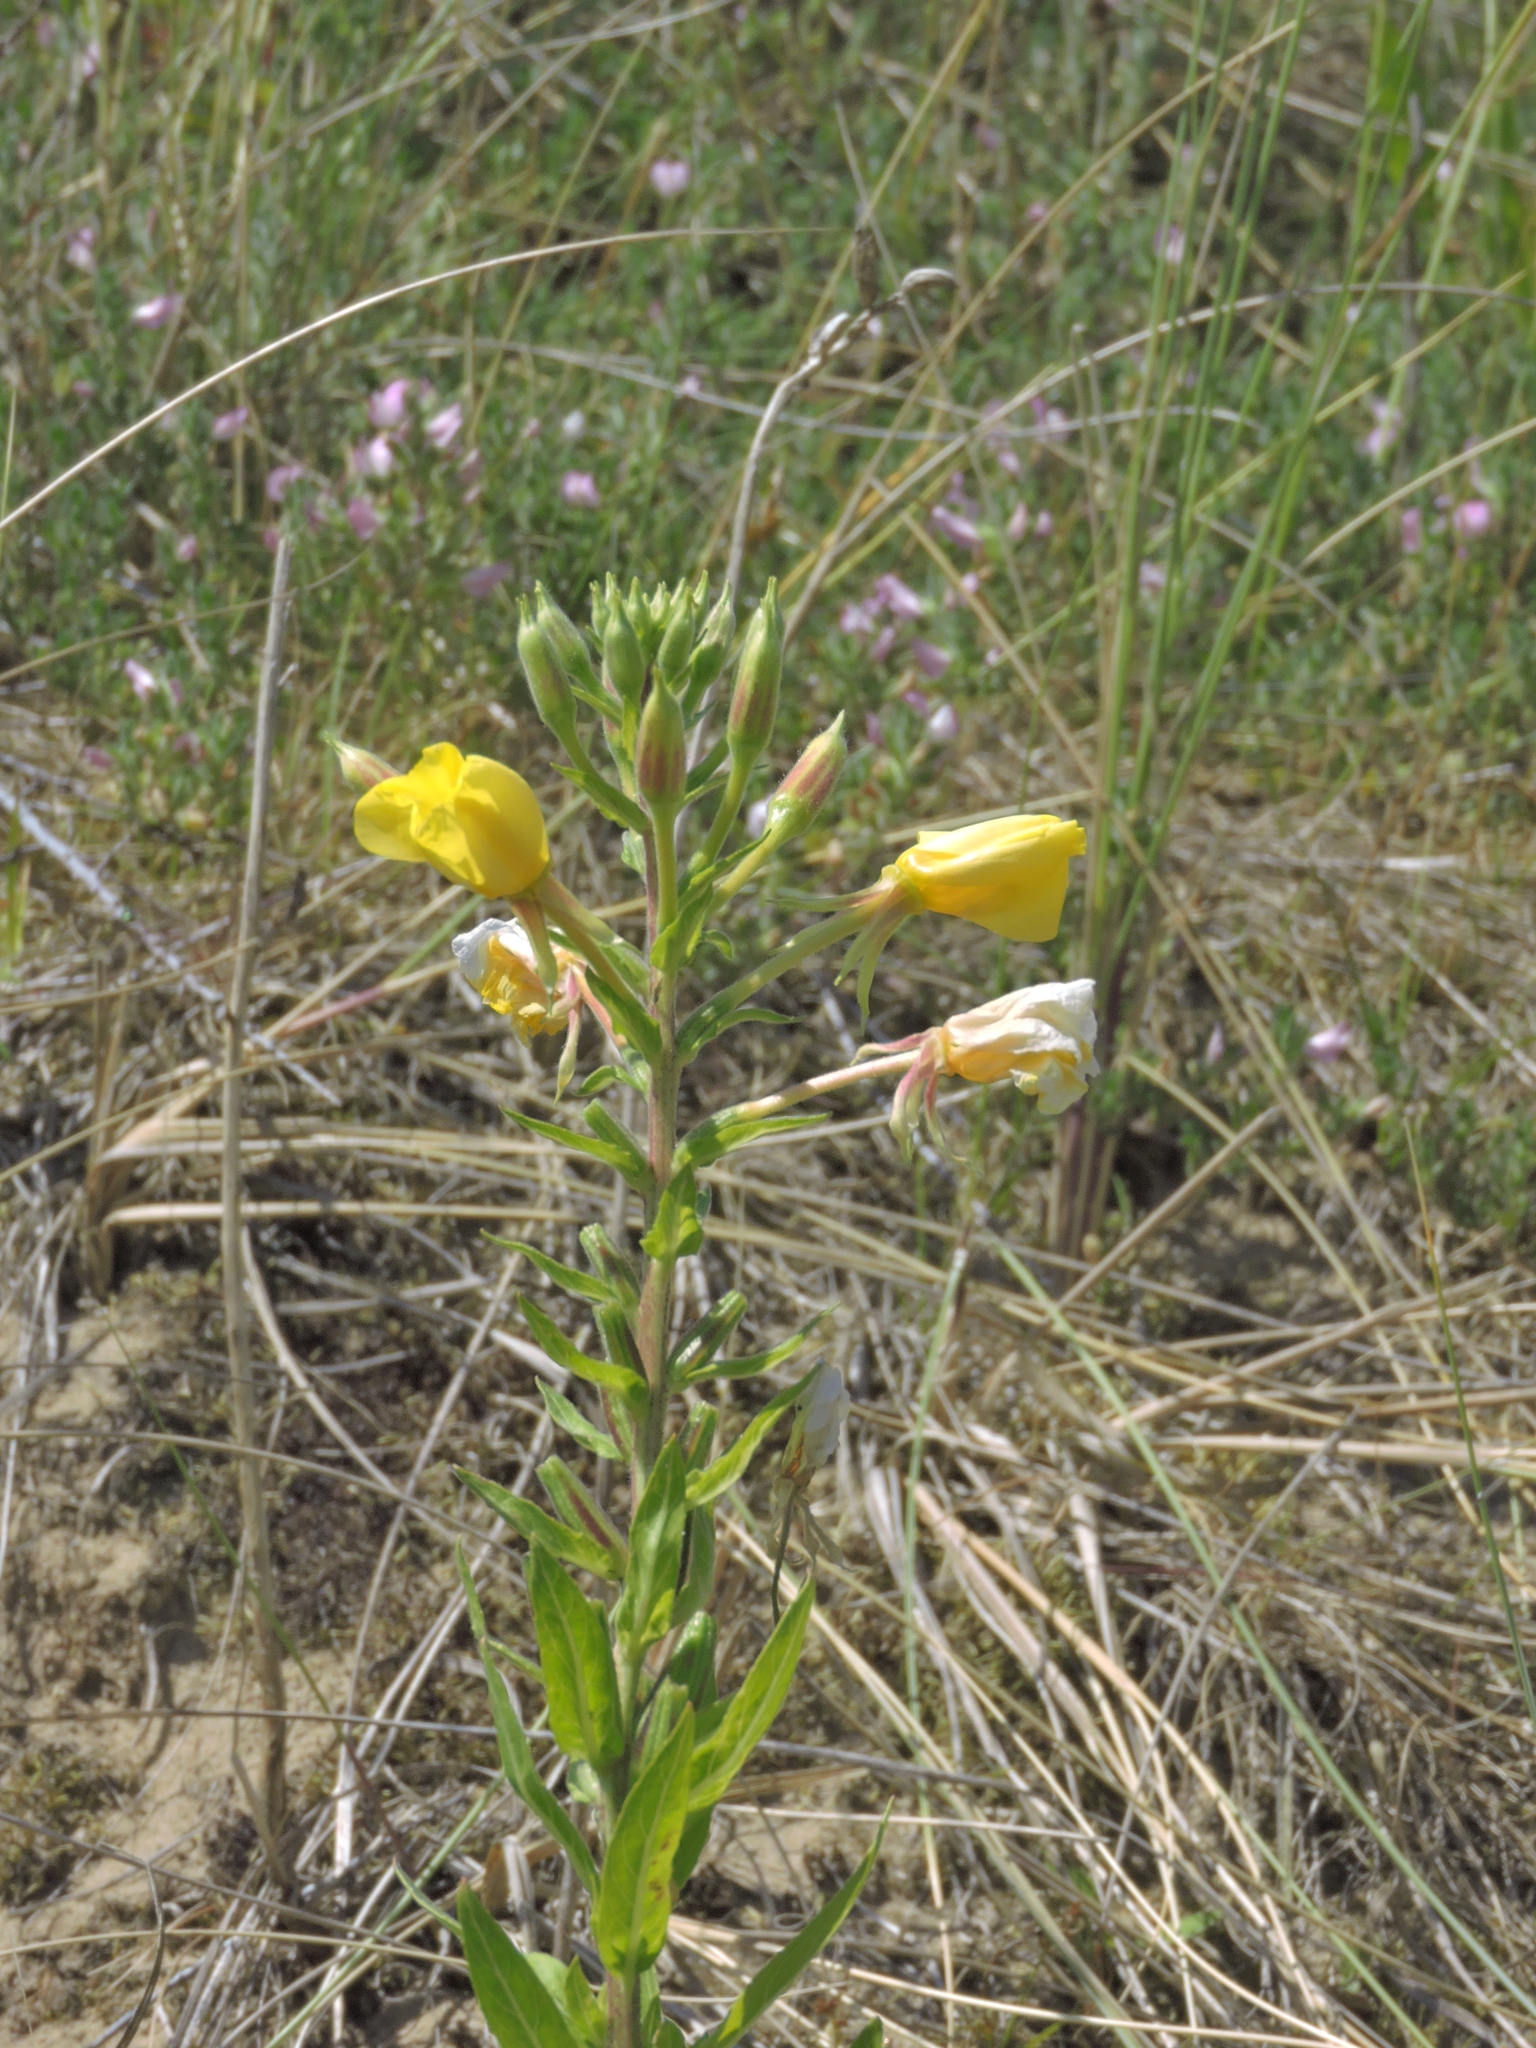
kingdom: Plantae
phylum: Tracheophyta
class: Magnoliopsida
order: Myrtales
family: Onagraceae
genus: Oenothera
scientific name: Oenothera fallax
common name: Intermediate evening-primrose
